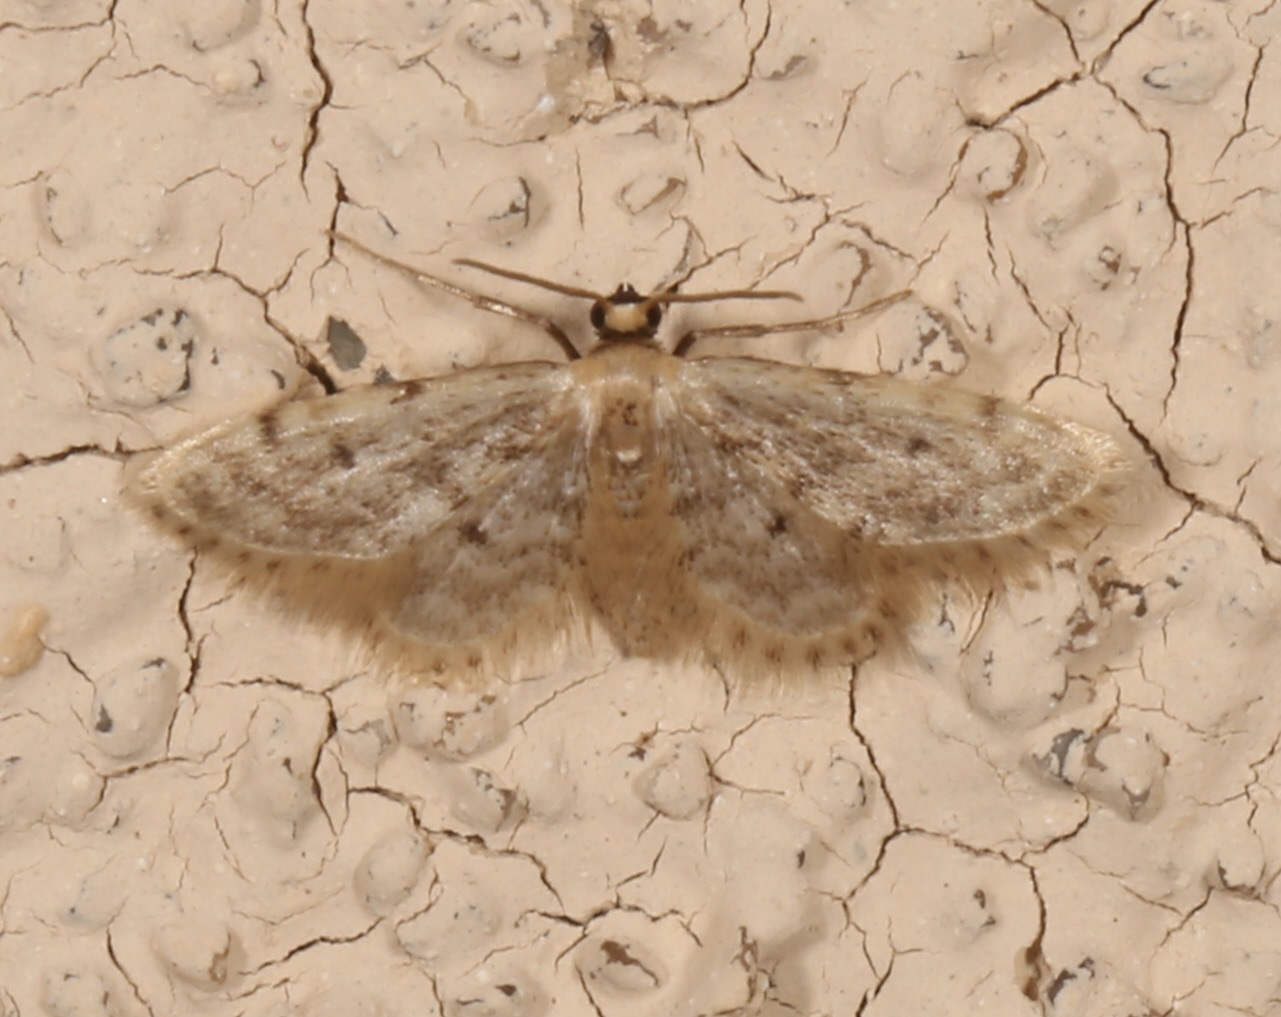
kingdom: Animalia
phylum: Arthropoda
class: Insecta
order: Lepidoptera
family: Geometridae
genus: Idaea
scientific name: Idaea bonifata
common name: Fortunate wave
